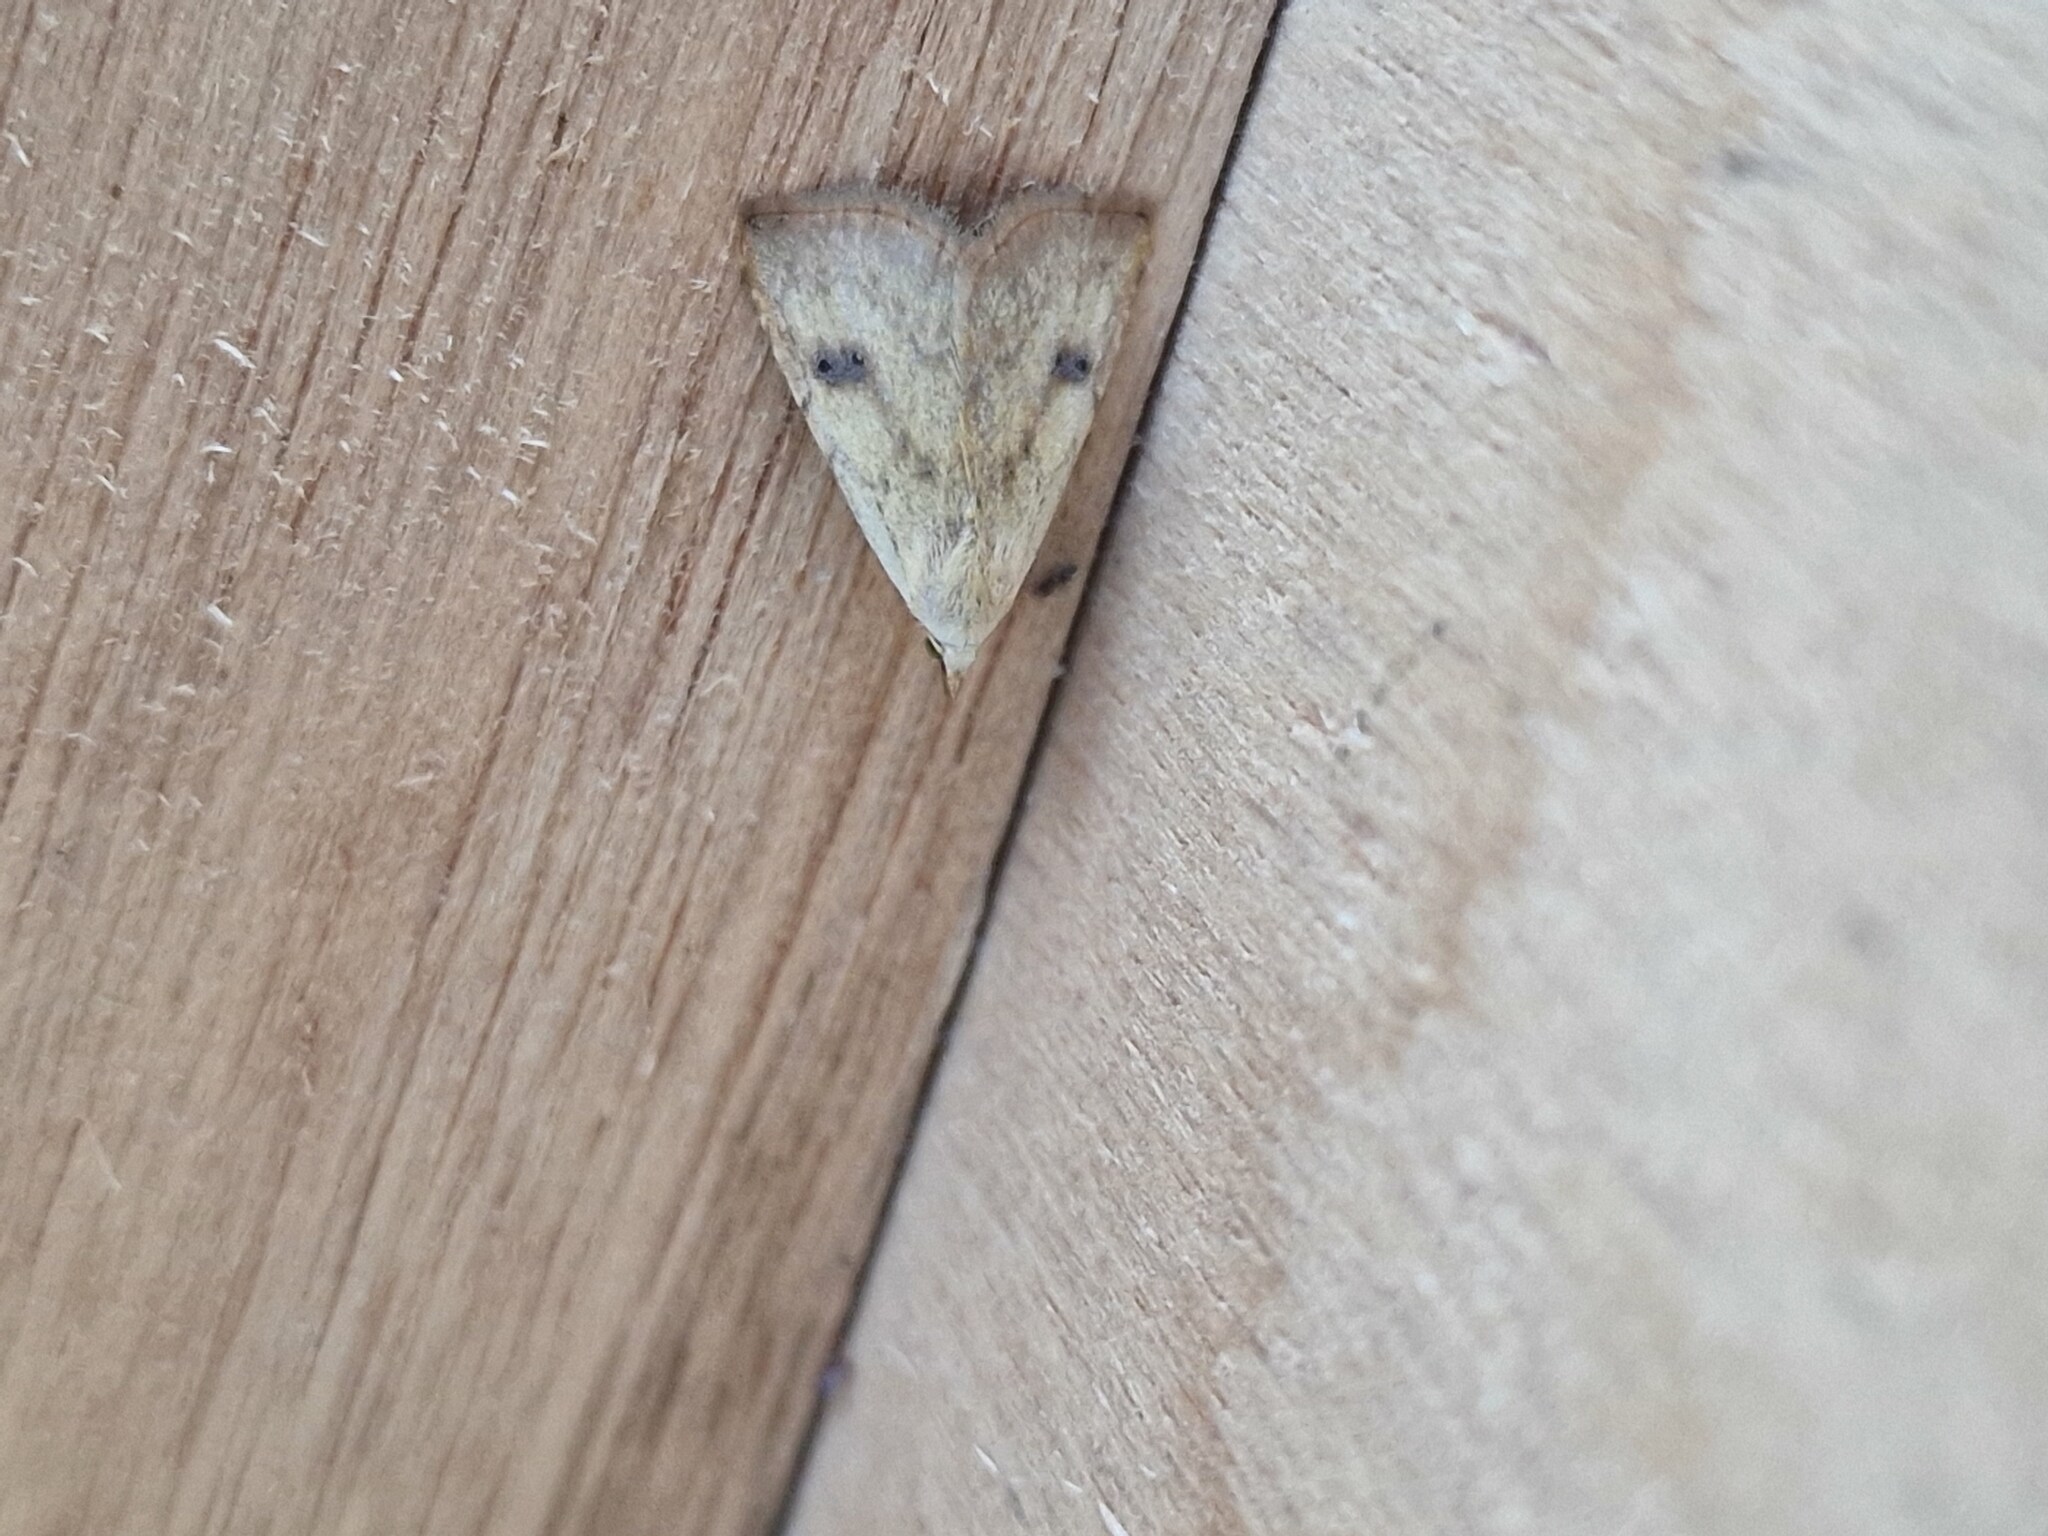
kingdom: Animalia
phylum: Arthropoda
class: Insecta
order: Lepidoptera
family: Erebidae
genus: Rivula
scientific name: Rivula sericealis
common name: Straw dot
